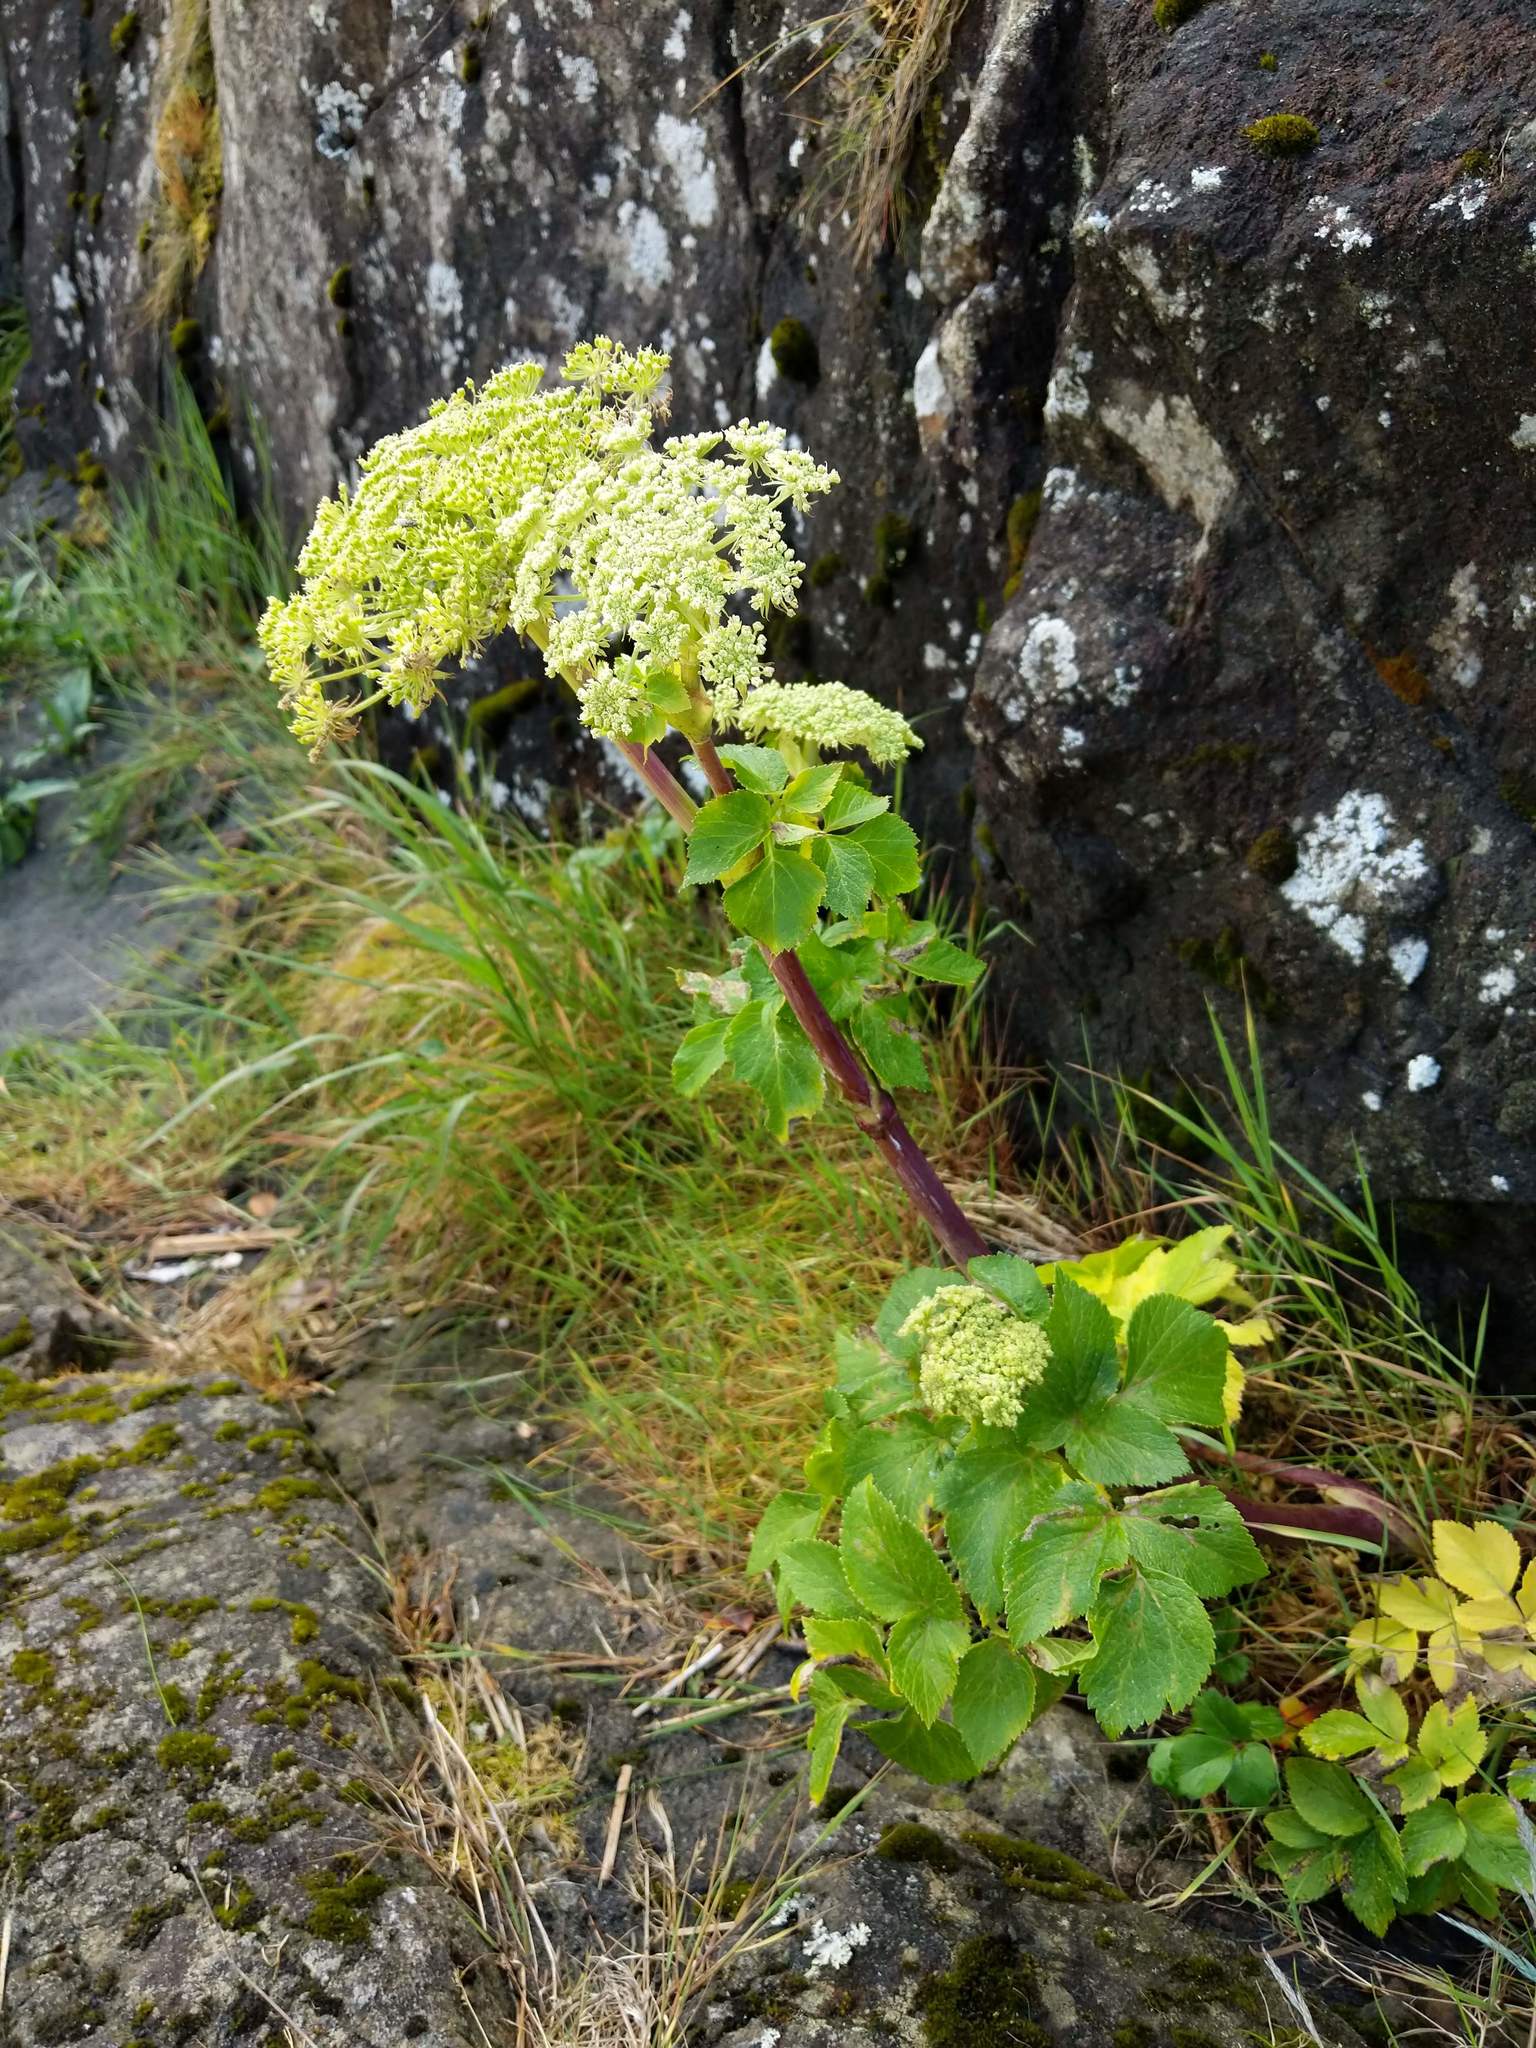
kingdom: Plantae
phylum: Tracheophyta
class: Magnoliopsida
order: Apiales
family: Apiaceae
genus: Angelica
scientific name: Angelica lucida
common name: Seabeach angelica
